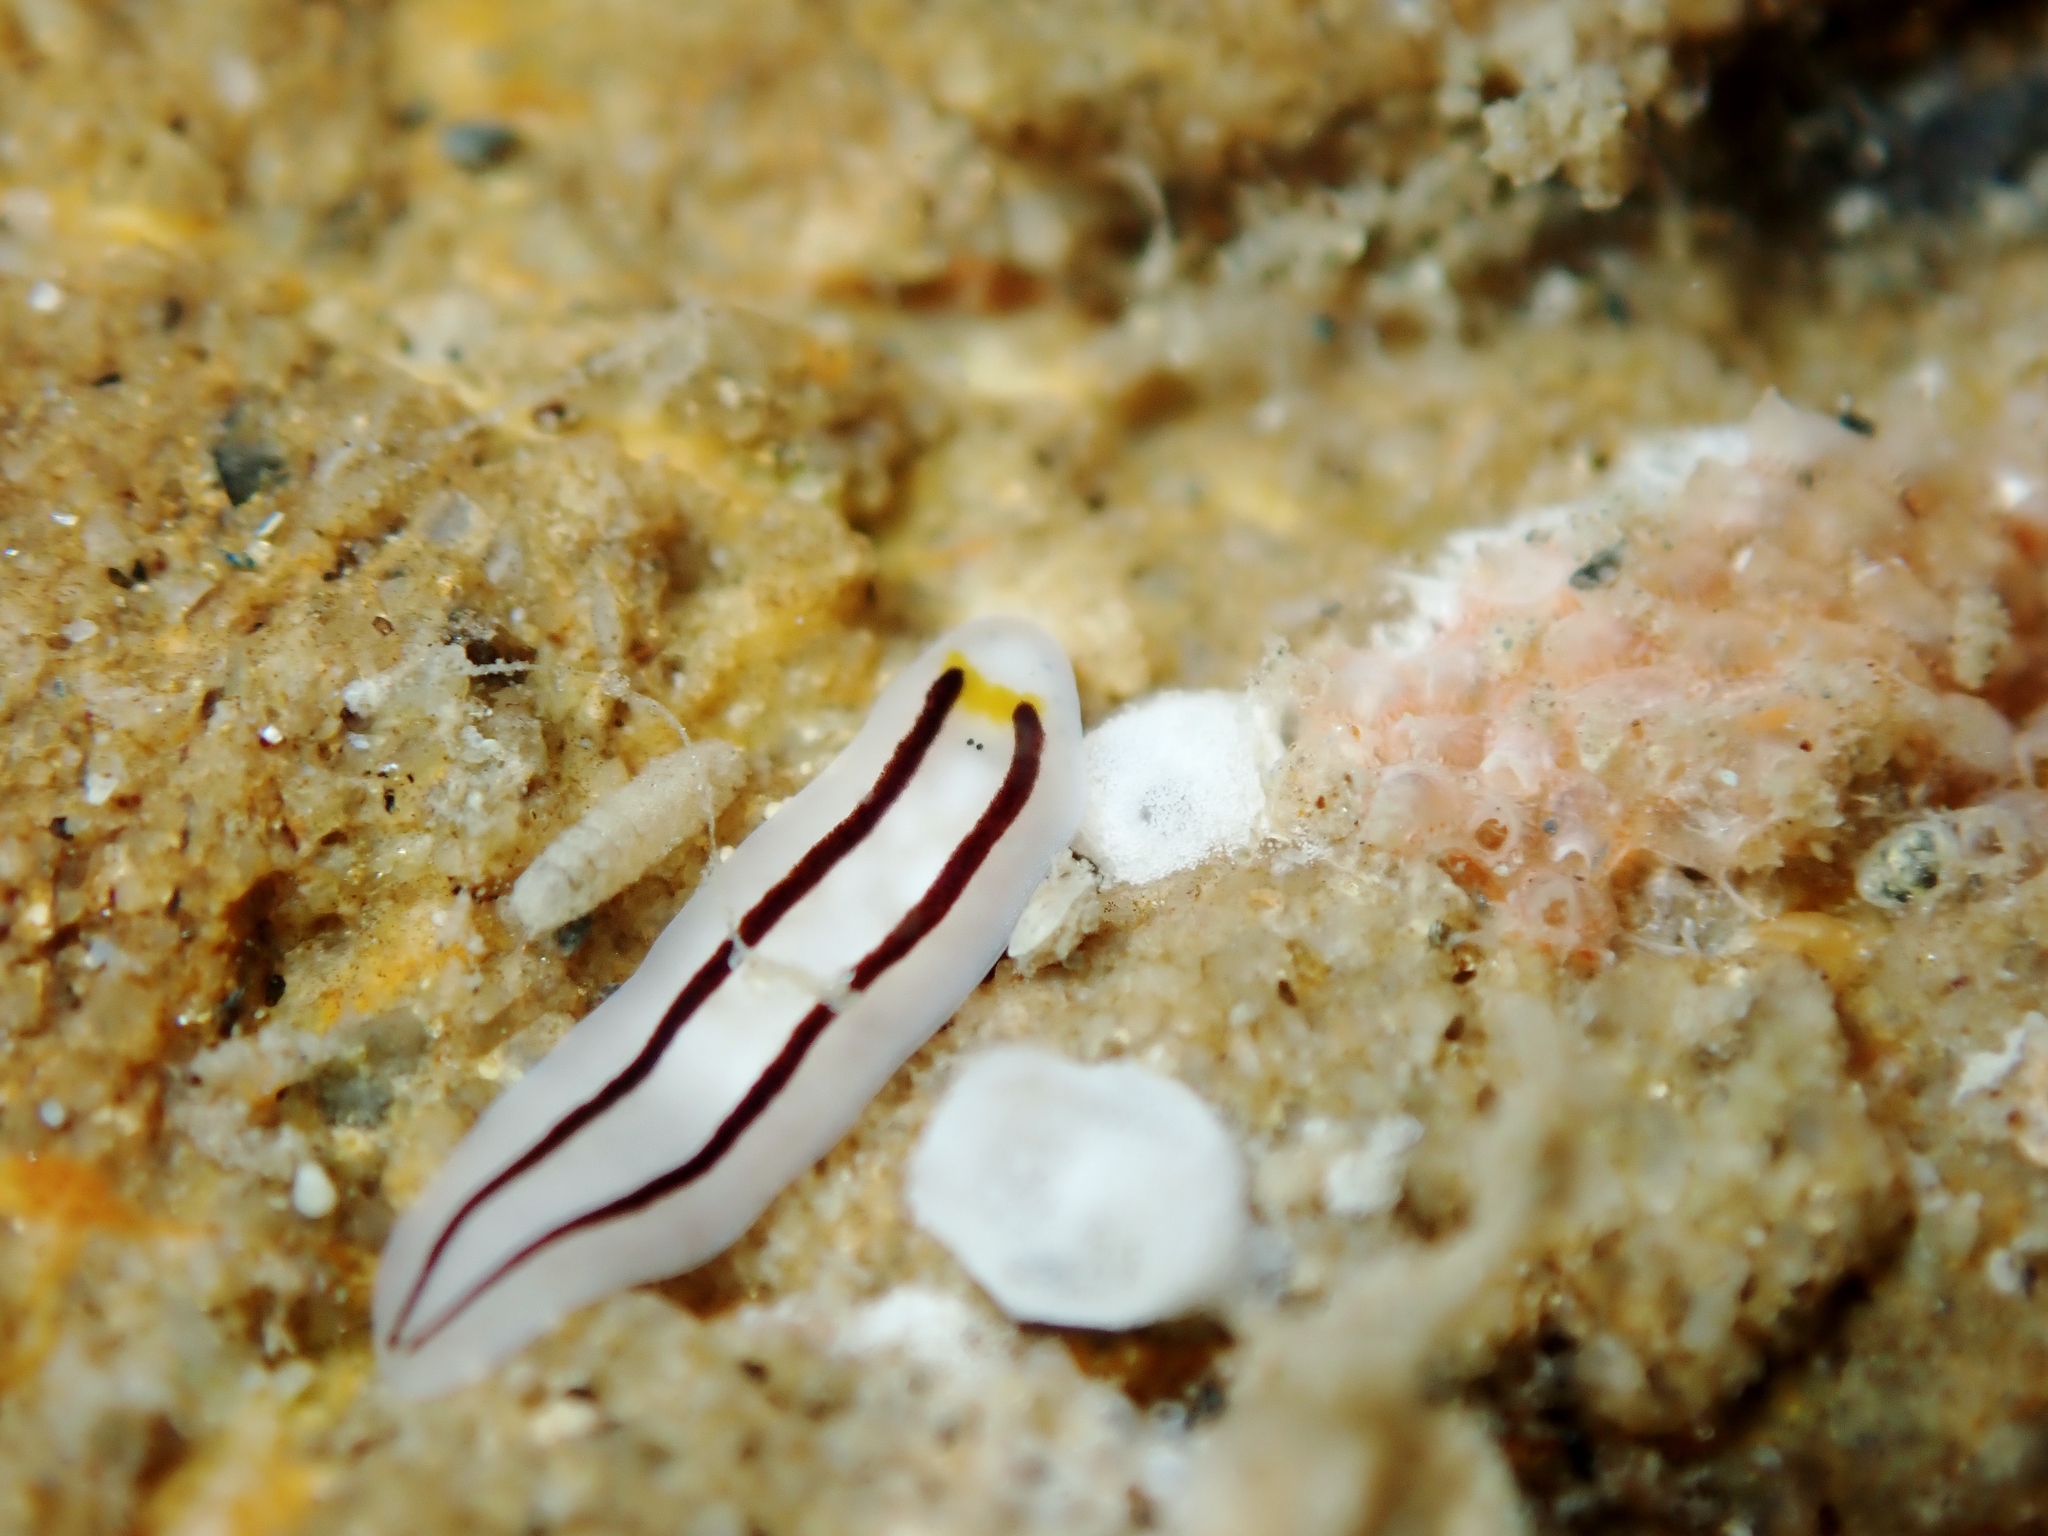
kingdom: Animalia
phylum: Platyhelminthes
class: Turbellaria
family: Chromoplanidae
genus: Chromoplana
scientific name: Chromoplana sirena
